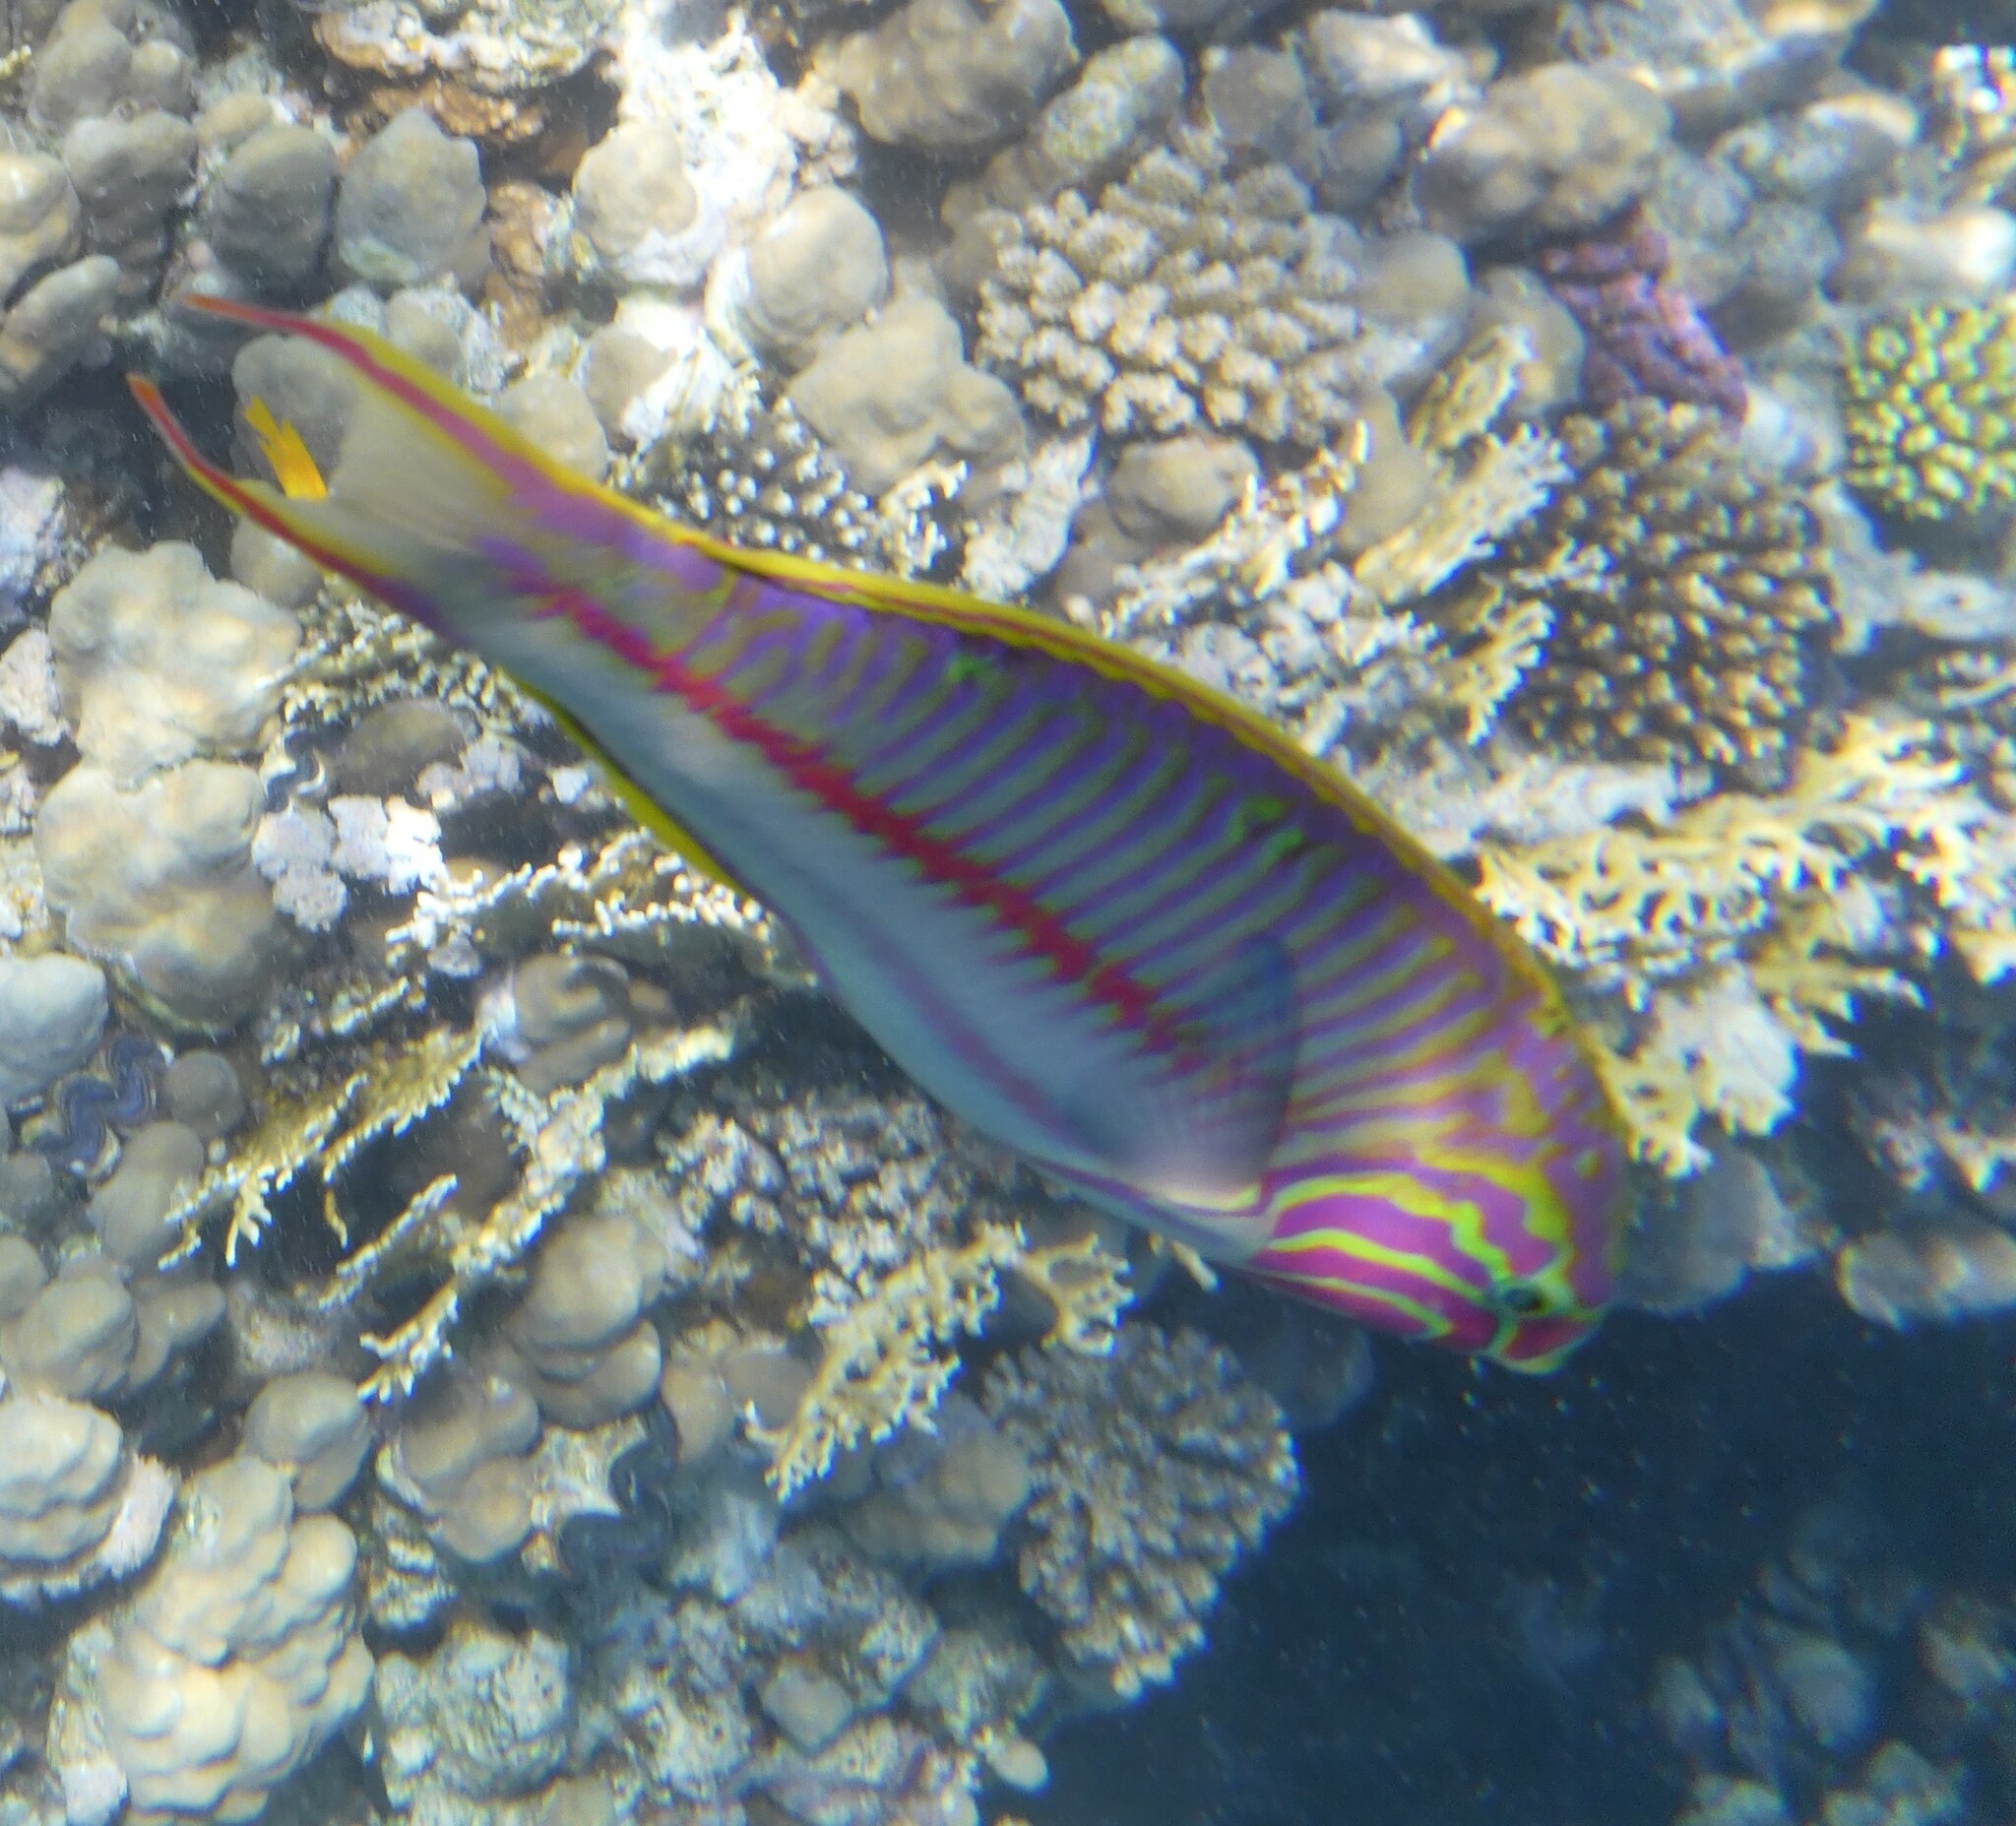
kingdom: Animalia
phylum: Chordata
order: Perciformes
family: Labridae
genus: Thalassoma
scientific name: Thalassoma rueppellii
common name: Klunzinger's wrasse
